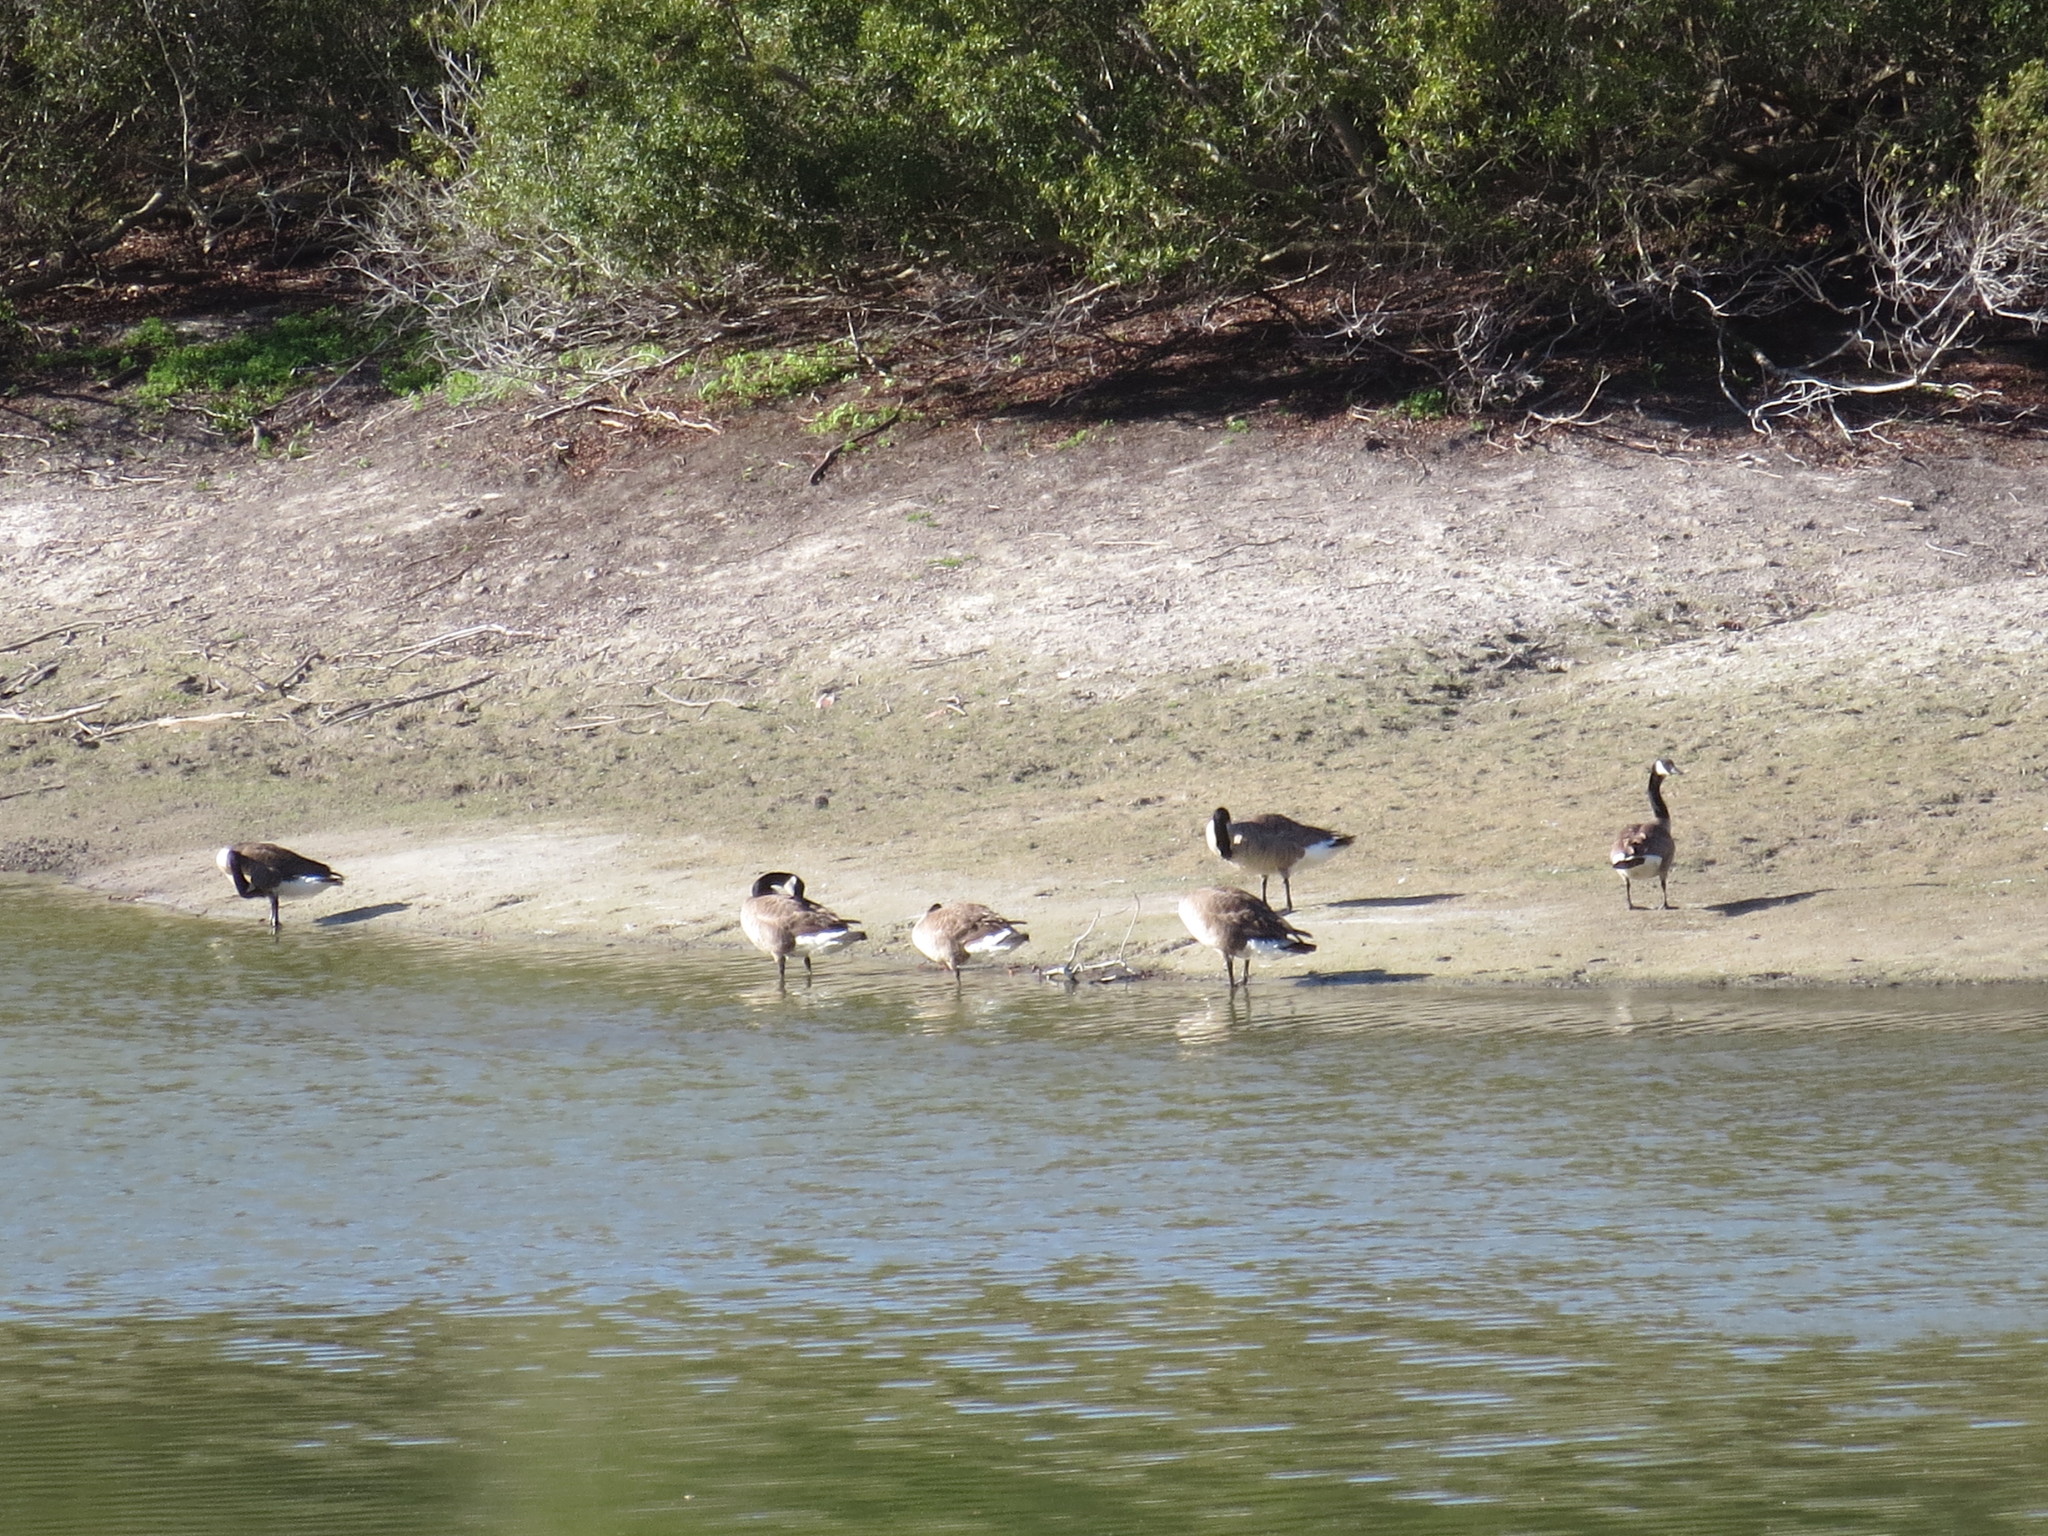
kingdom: Animalia
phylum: Chordata
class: Aves
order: Anseriformes
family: Anatidae
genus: Branta
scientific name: Branta canadensis
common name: Canada goose
